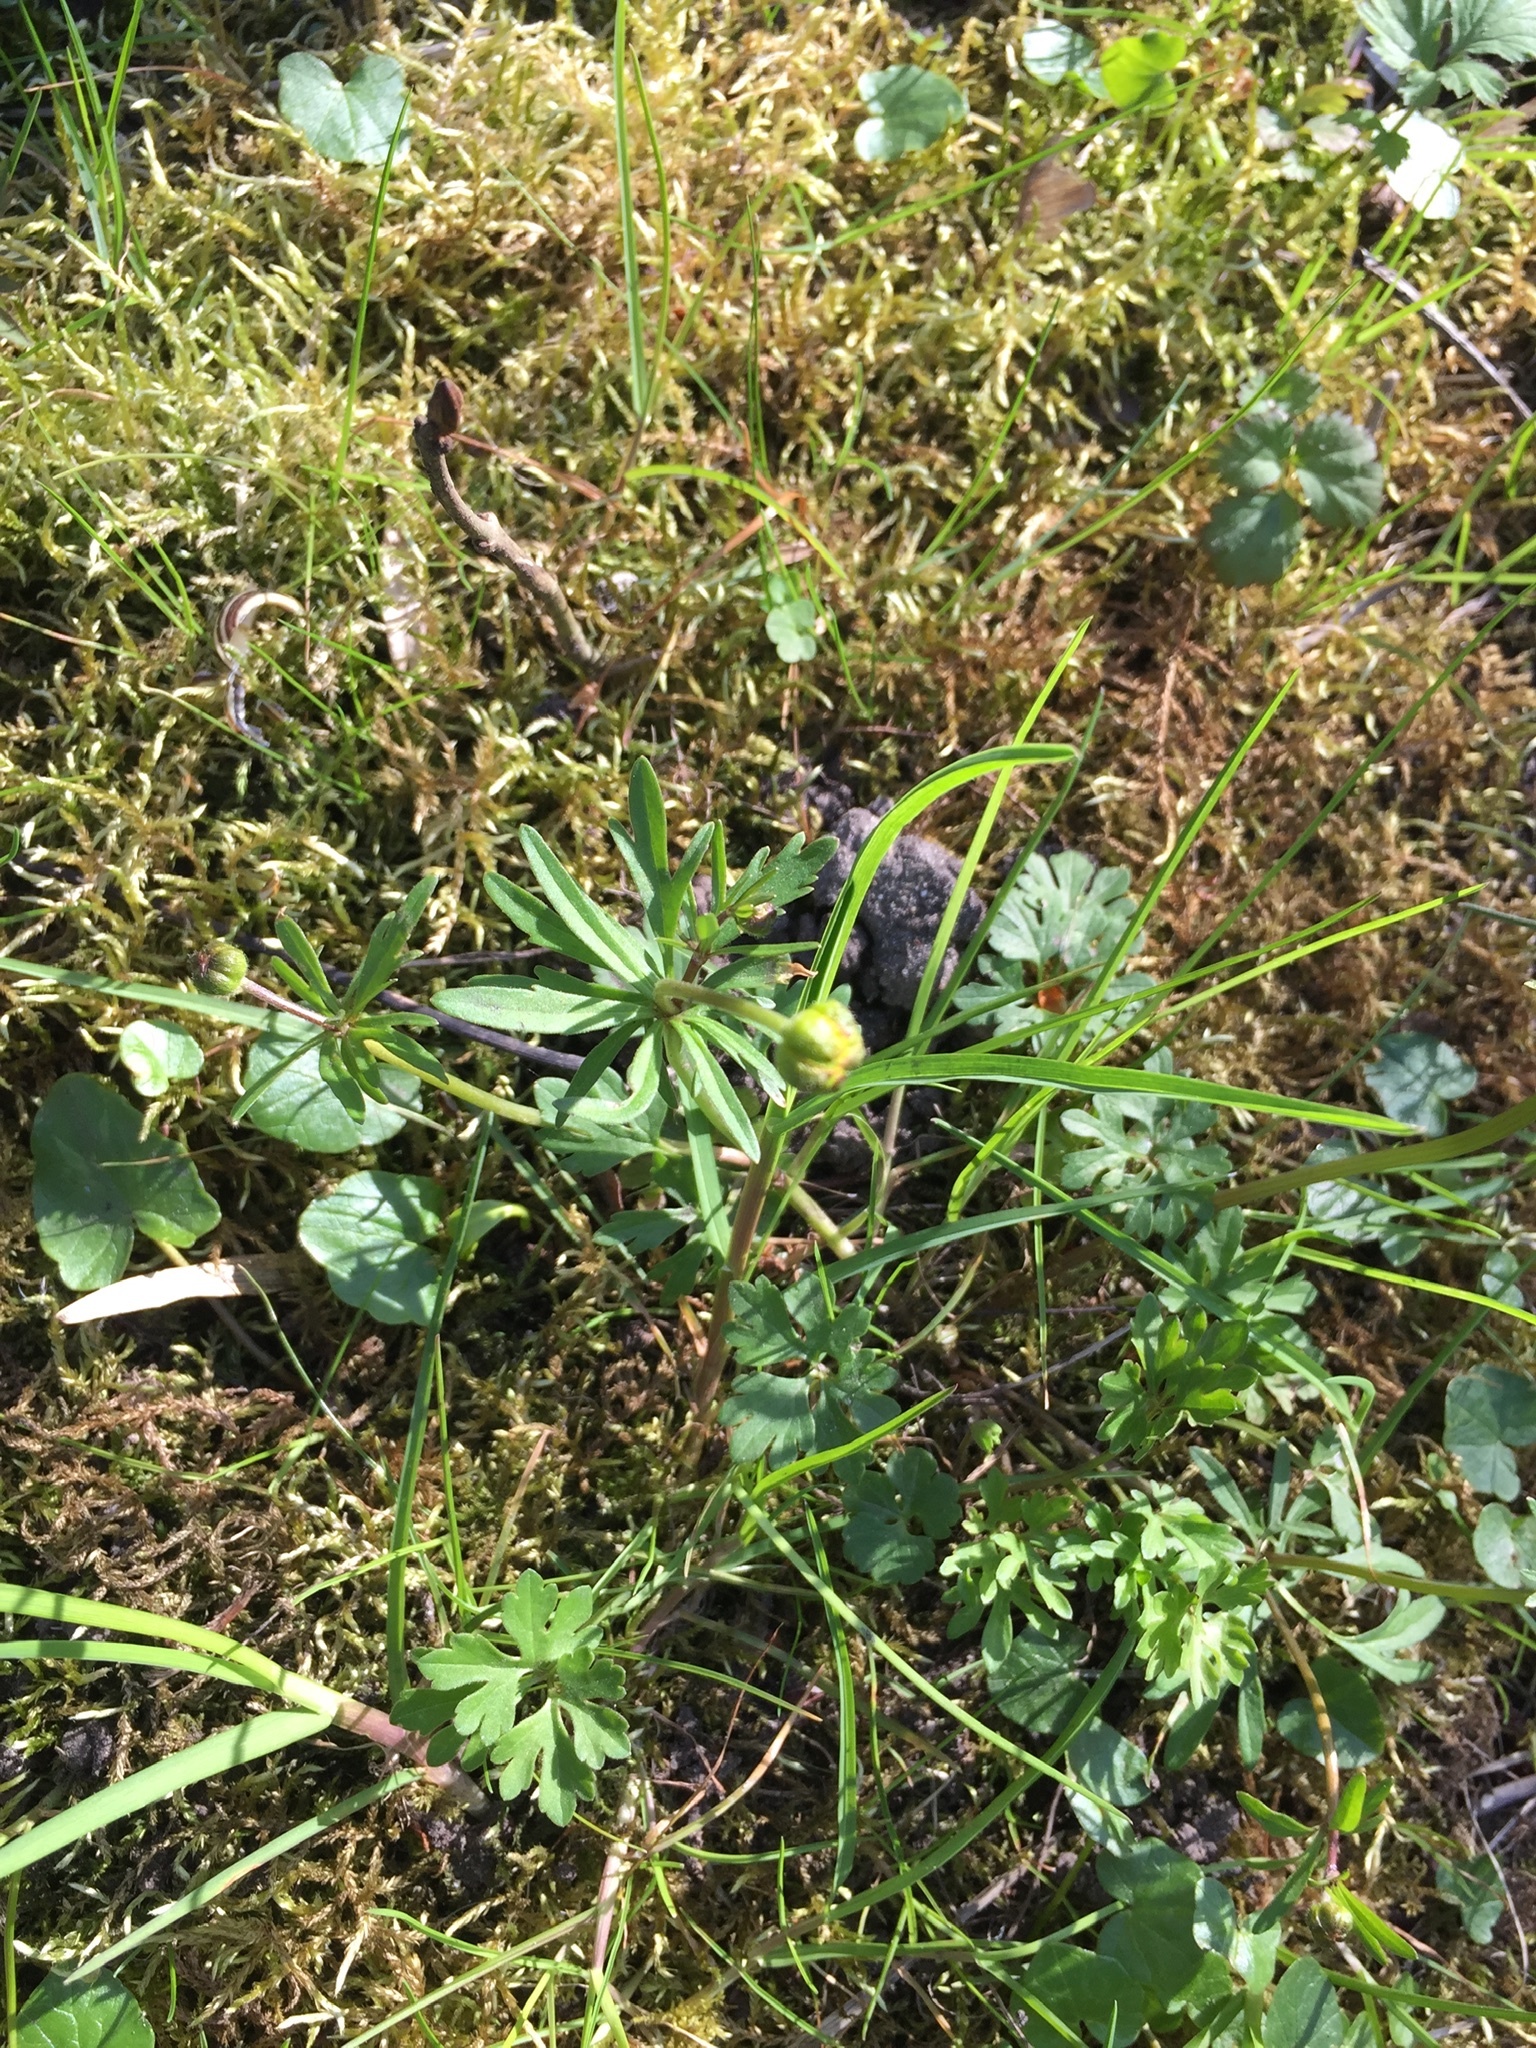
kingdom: Plantae
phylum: Tracheophyta
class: Magnoliopsida
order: Ranunculales
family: Ranunculaceae
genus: Ranunculus
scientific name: Ranunculus auricomus
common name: Goldilocks buttercup
